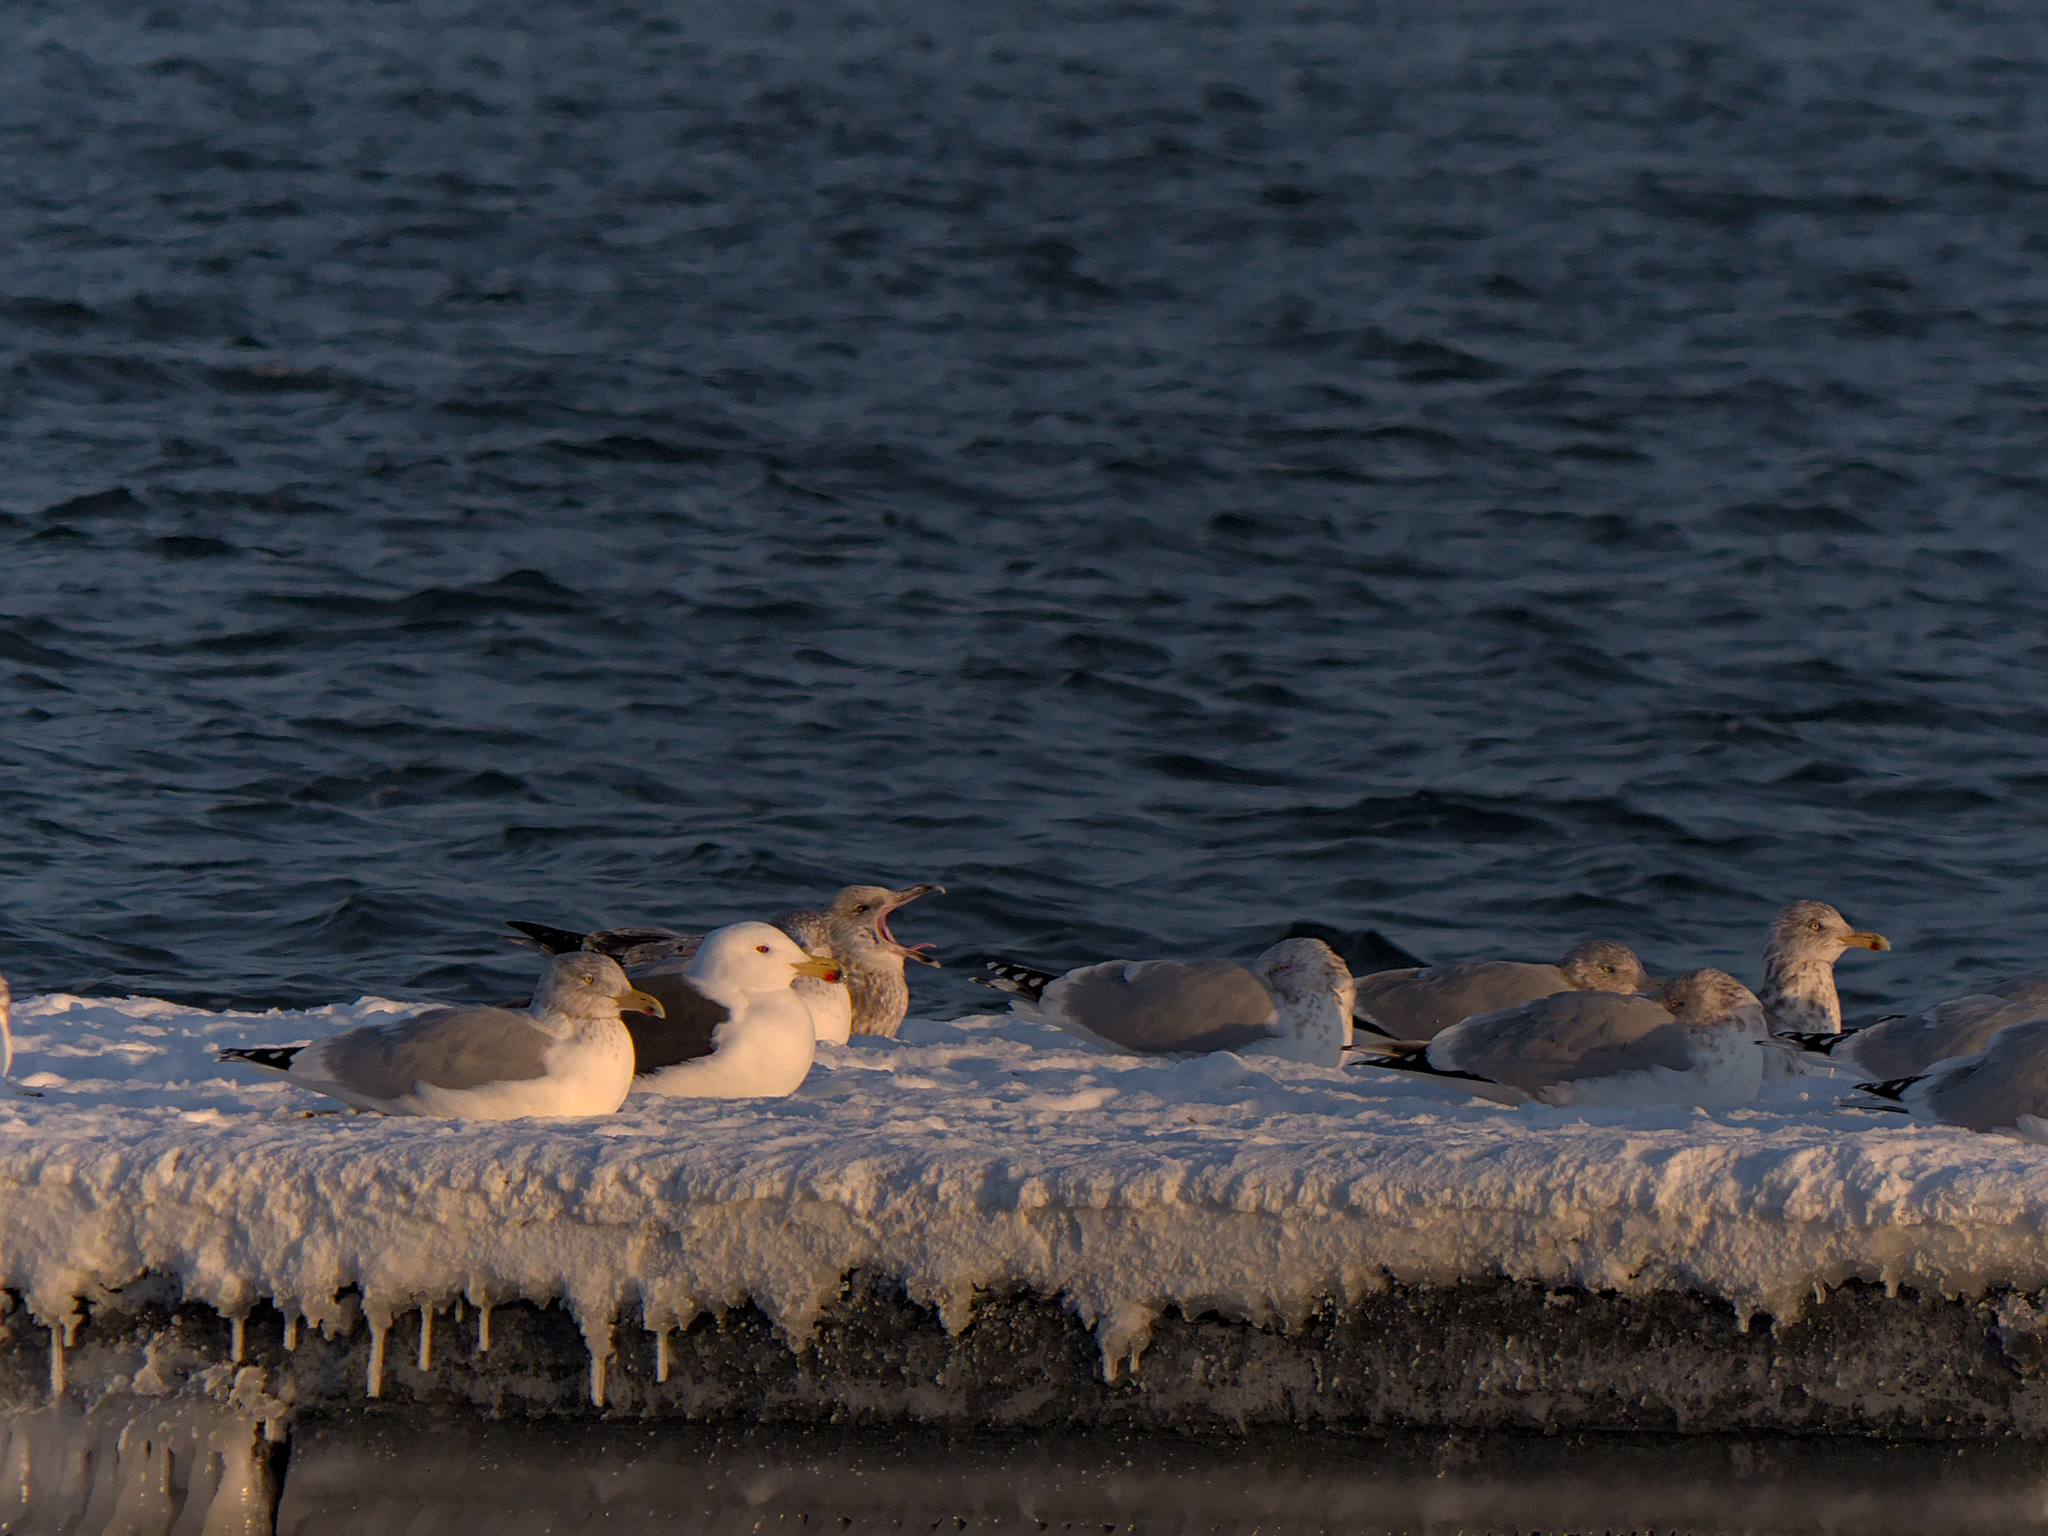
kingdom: Animalia
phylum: Chordata
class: Aves
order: Charadriiformes
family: Laridae
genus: Larus
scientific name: Larus argentatus
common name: Herring gull
